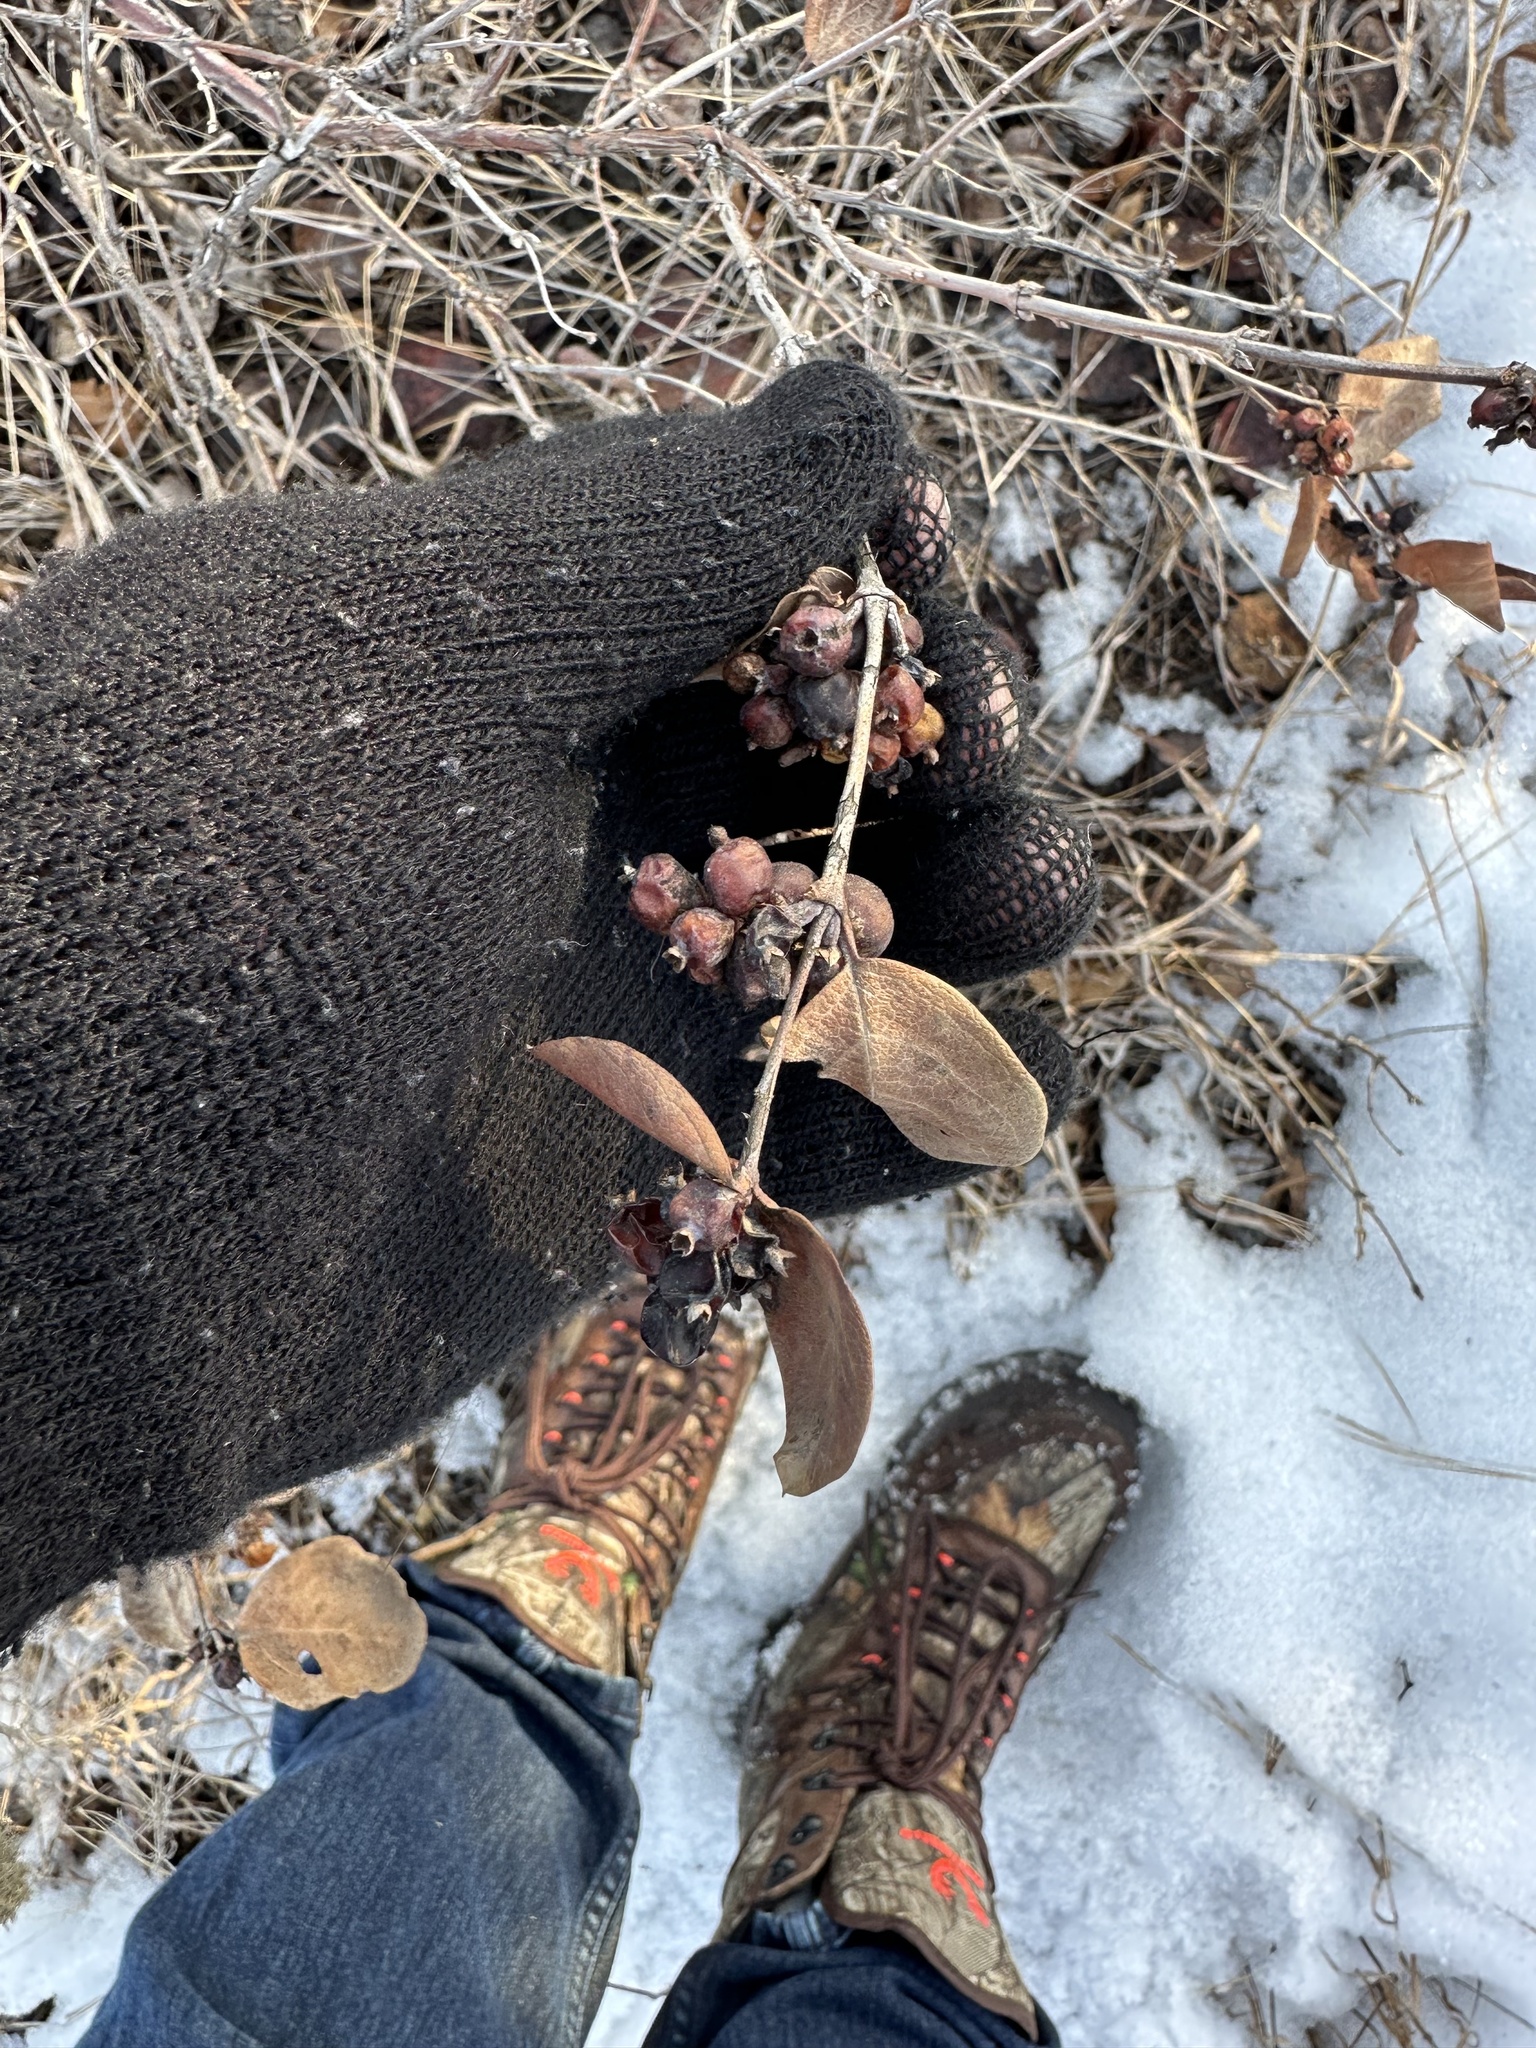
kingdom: Plantae
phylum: Tracheophyta
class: Magnoliopsida
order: Dipsacales
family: Caprifoliaceae
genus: Symphoricarpos
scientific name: Symphoricarpos occidentalis
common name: Wolfberry
